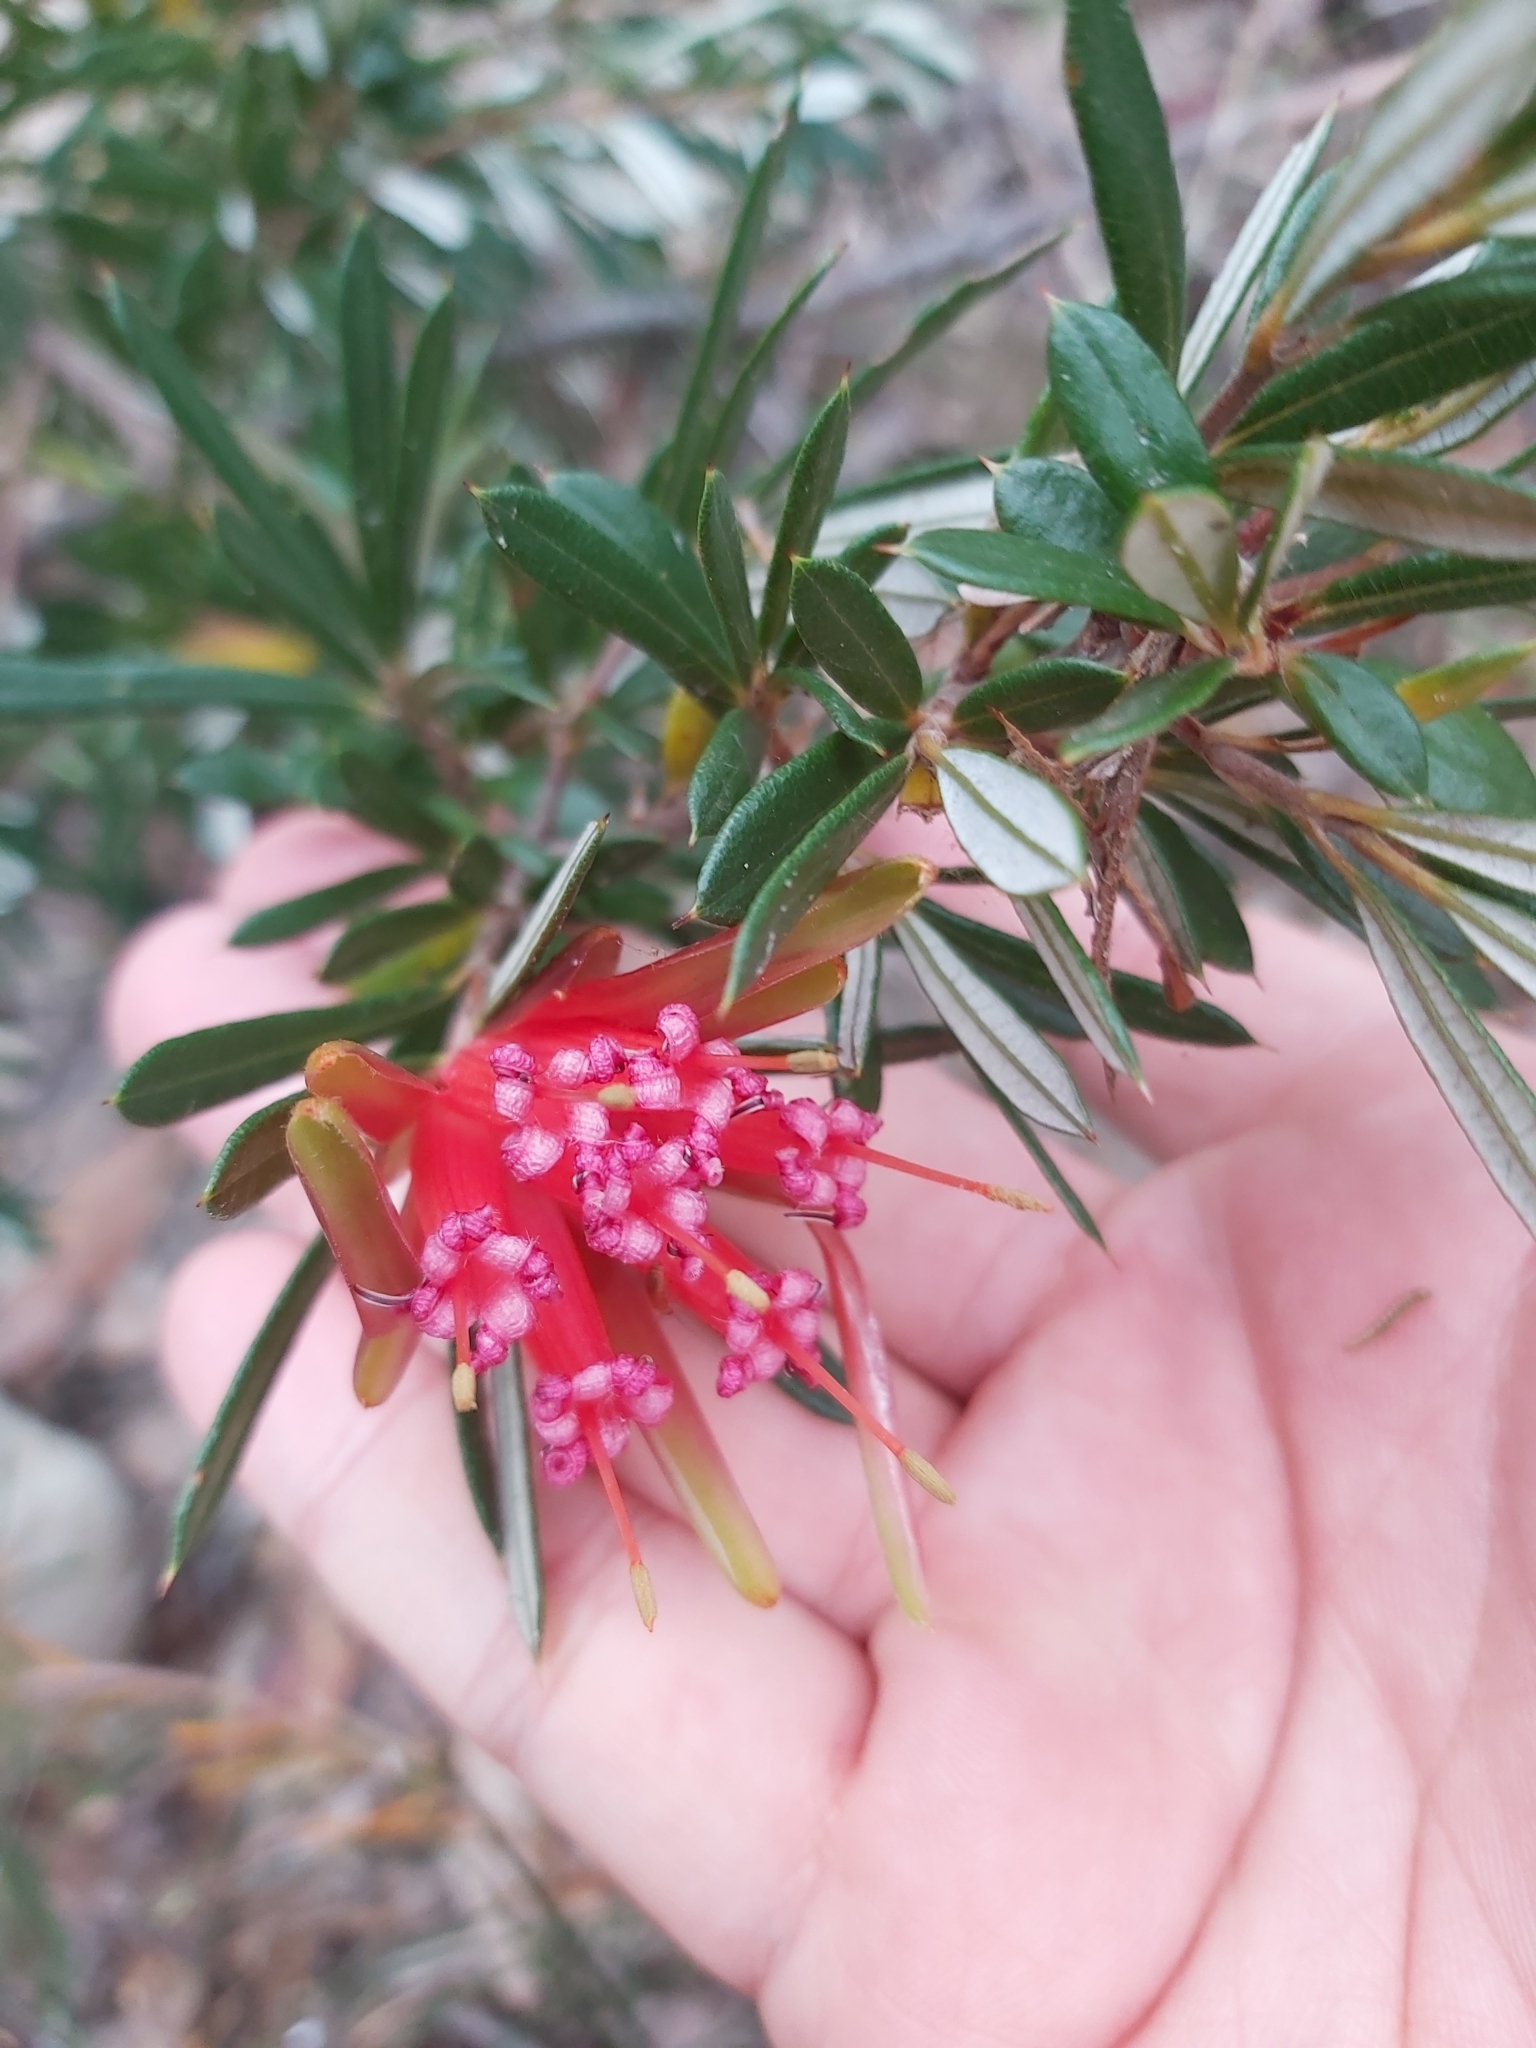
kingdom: Plantae
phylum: Tracheophyta
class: Magnoliopsida
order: Proteales
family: Proteaceae
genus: Lambertia
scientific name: Lambertia formosa
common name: Mountain-devil
